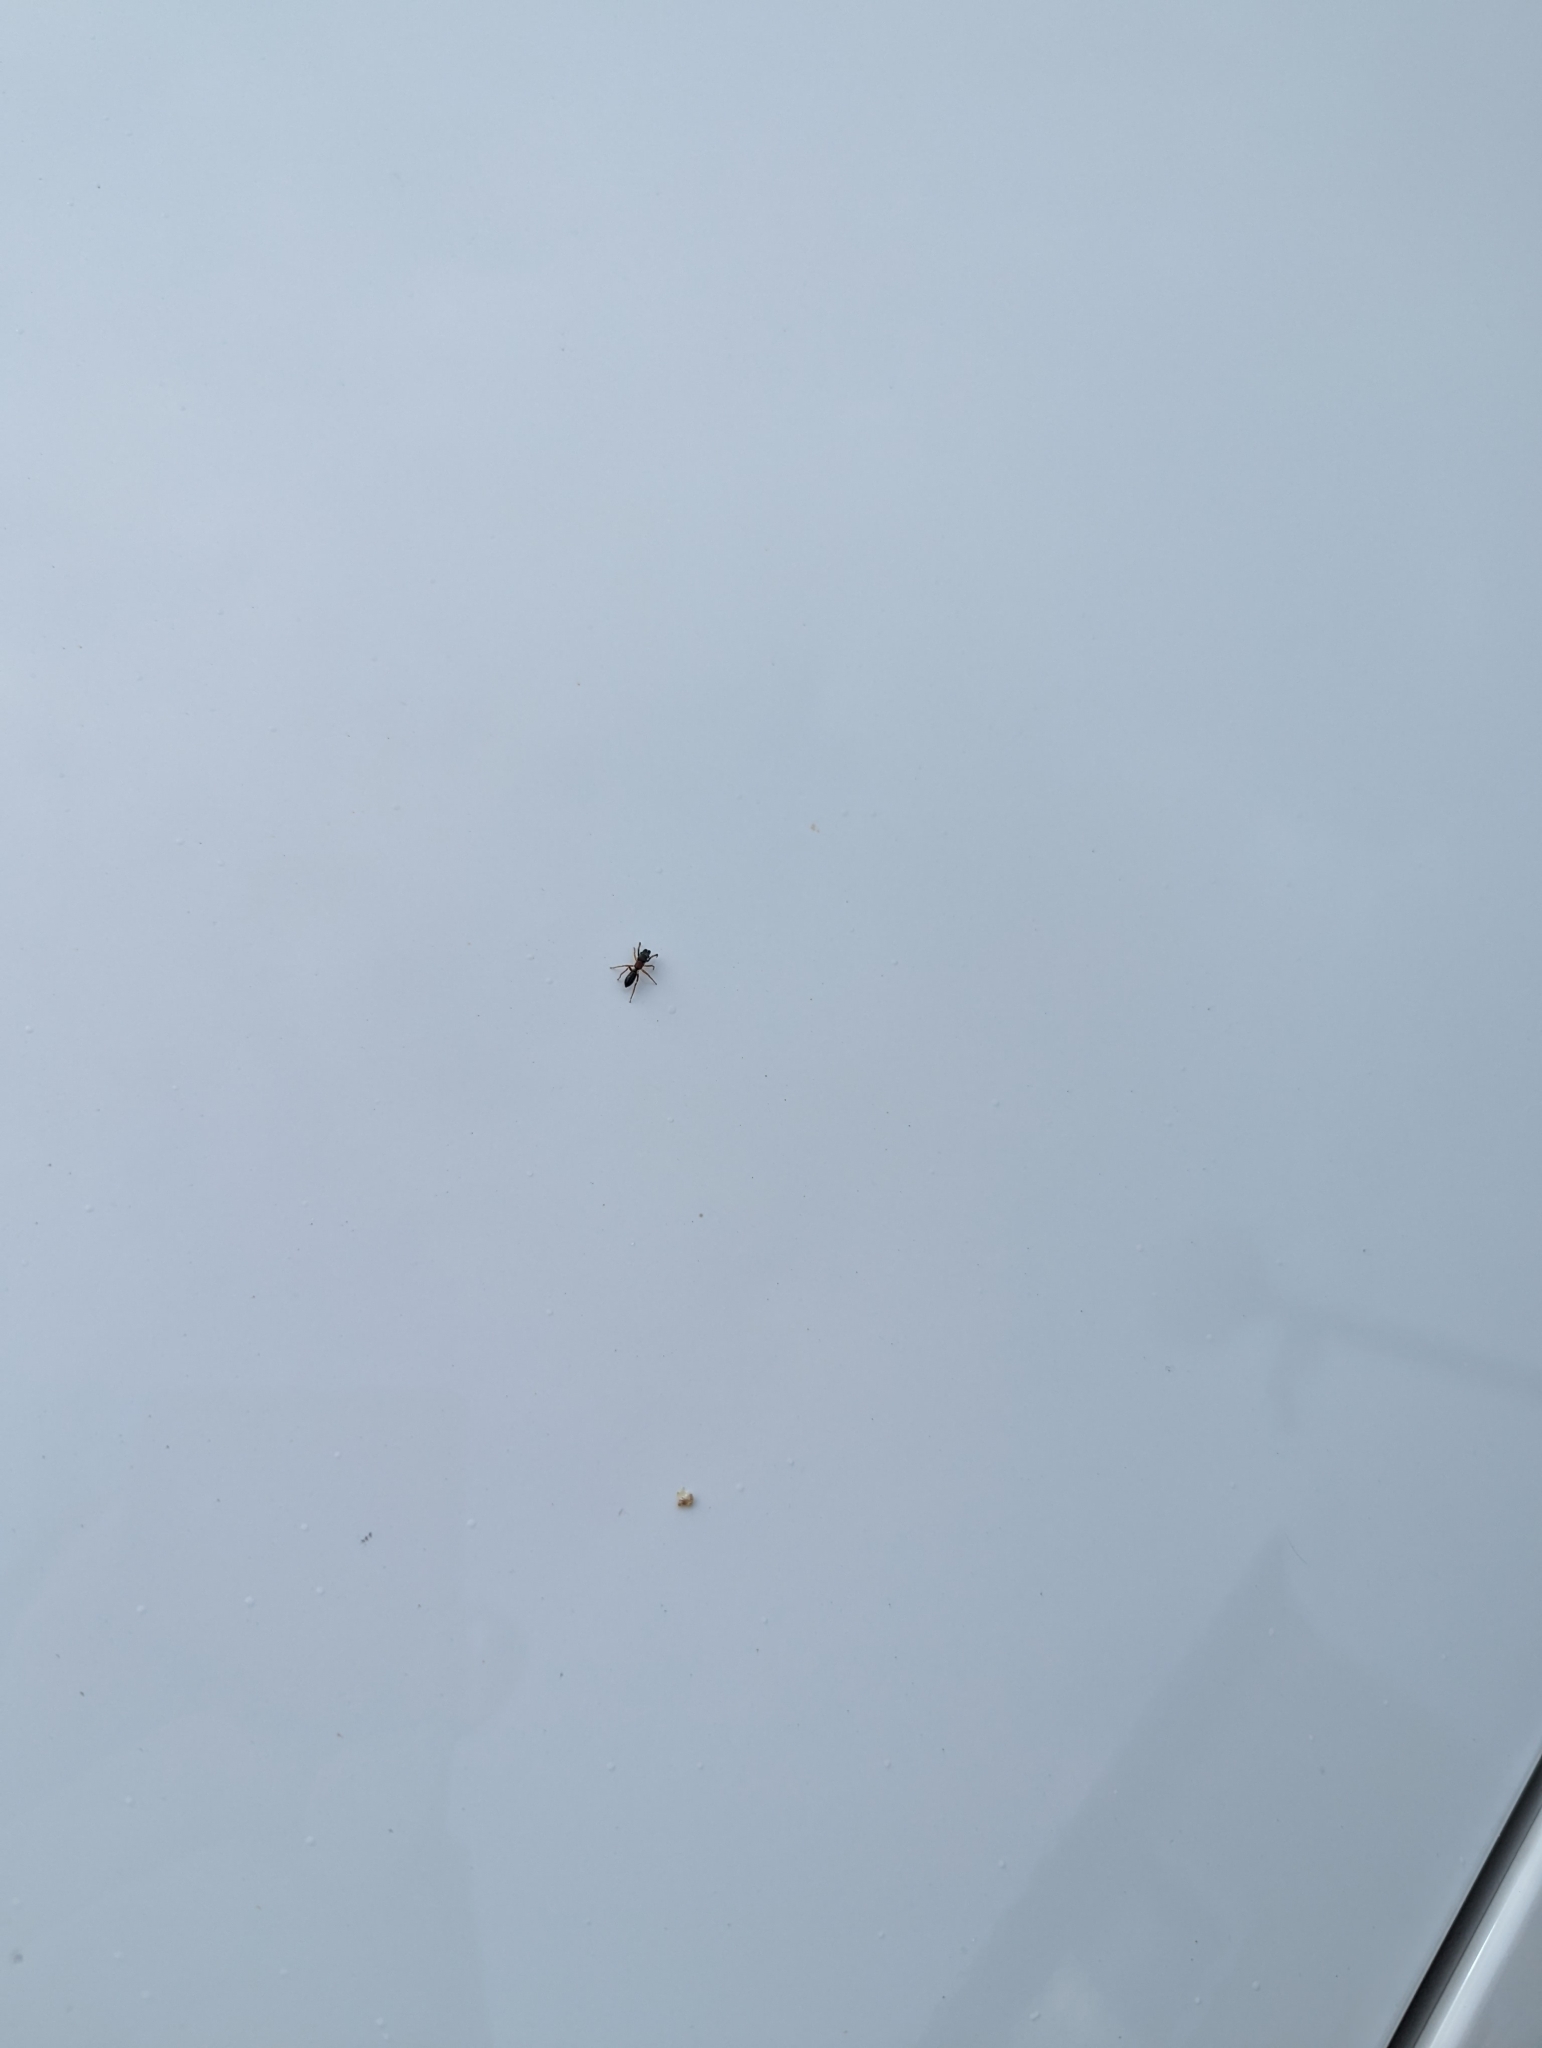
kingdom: Animalia
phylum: Arthropoda
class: Arachnida
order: Araneae
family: Salticidae
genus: Myrmarachne
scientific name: Myrmarachne formicaria
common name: Ant mimic jumping spider
